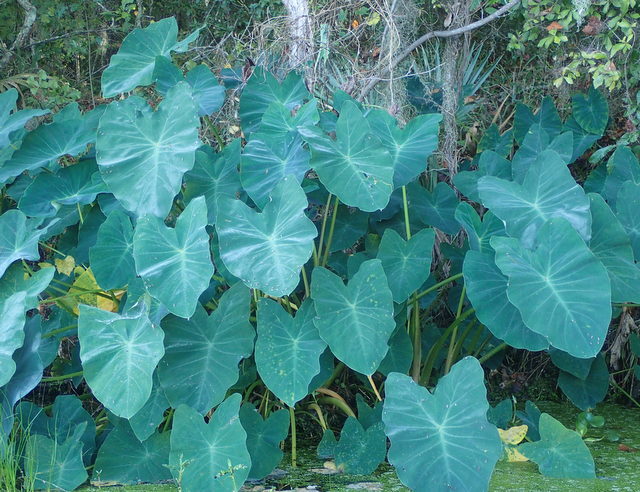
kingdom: Plantae
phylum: Tracheophyta
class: Liliopsida
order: Alismatales
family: Araceae
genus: Colocasia
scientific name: Colocasia esculenta
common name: Taro
